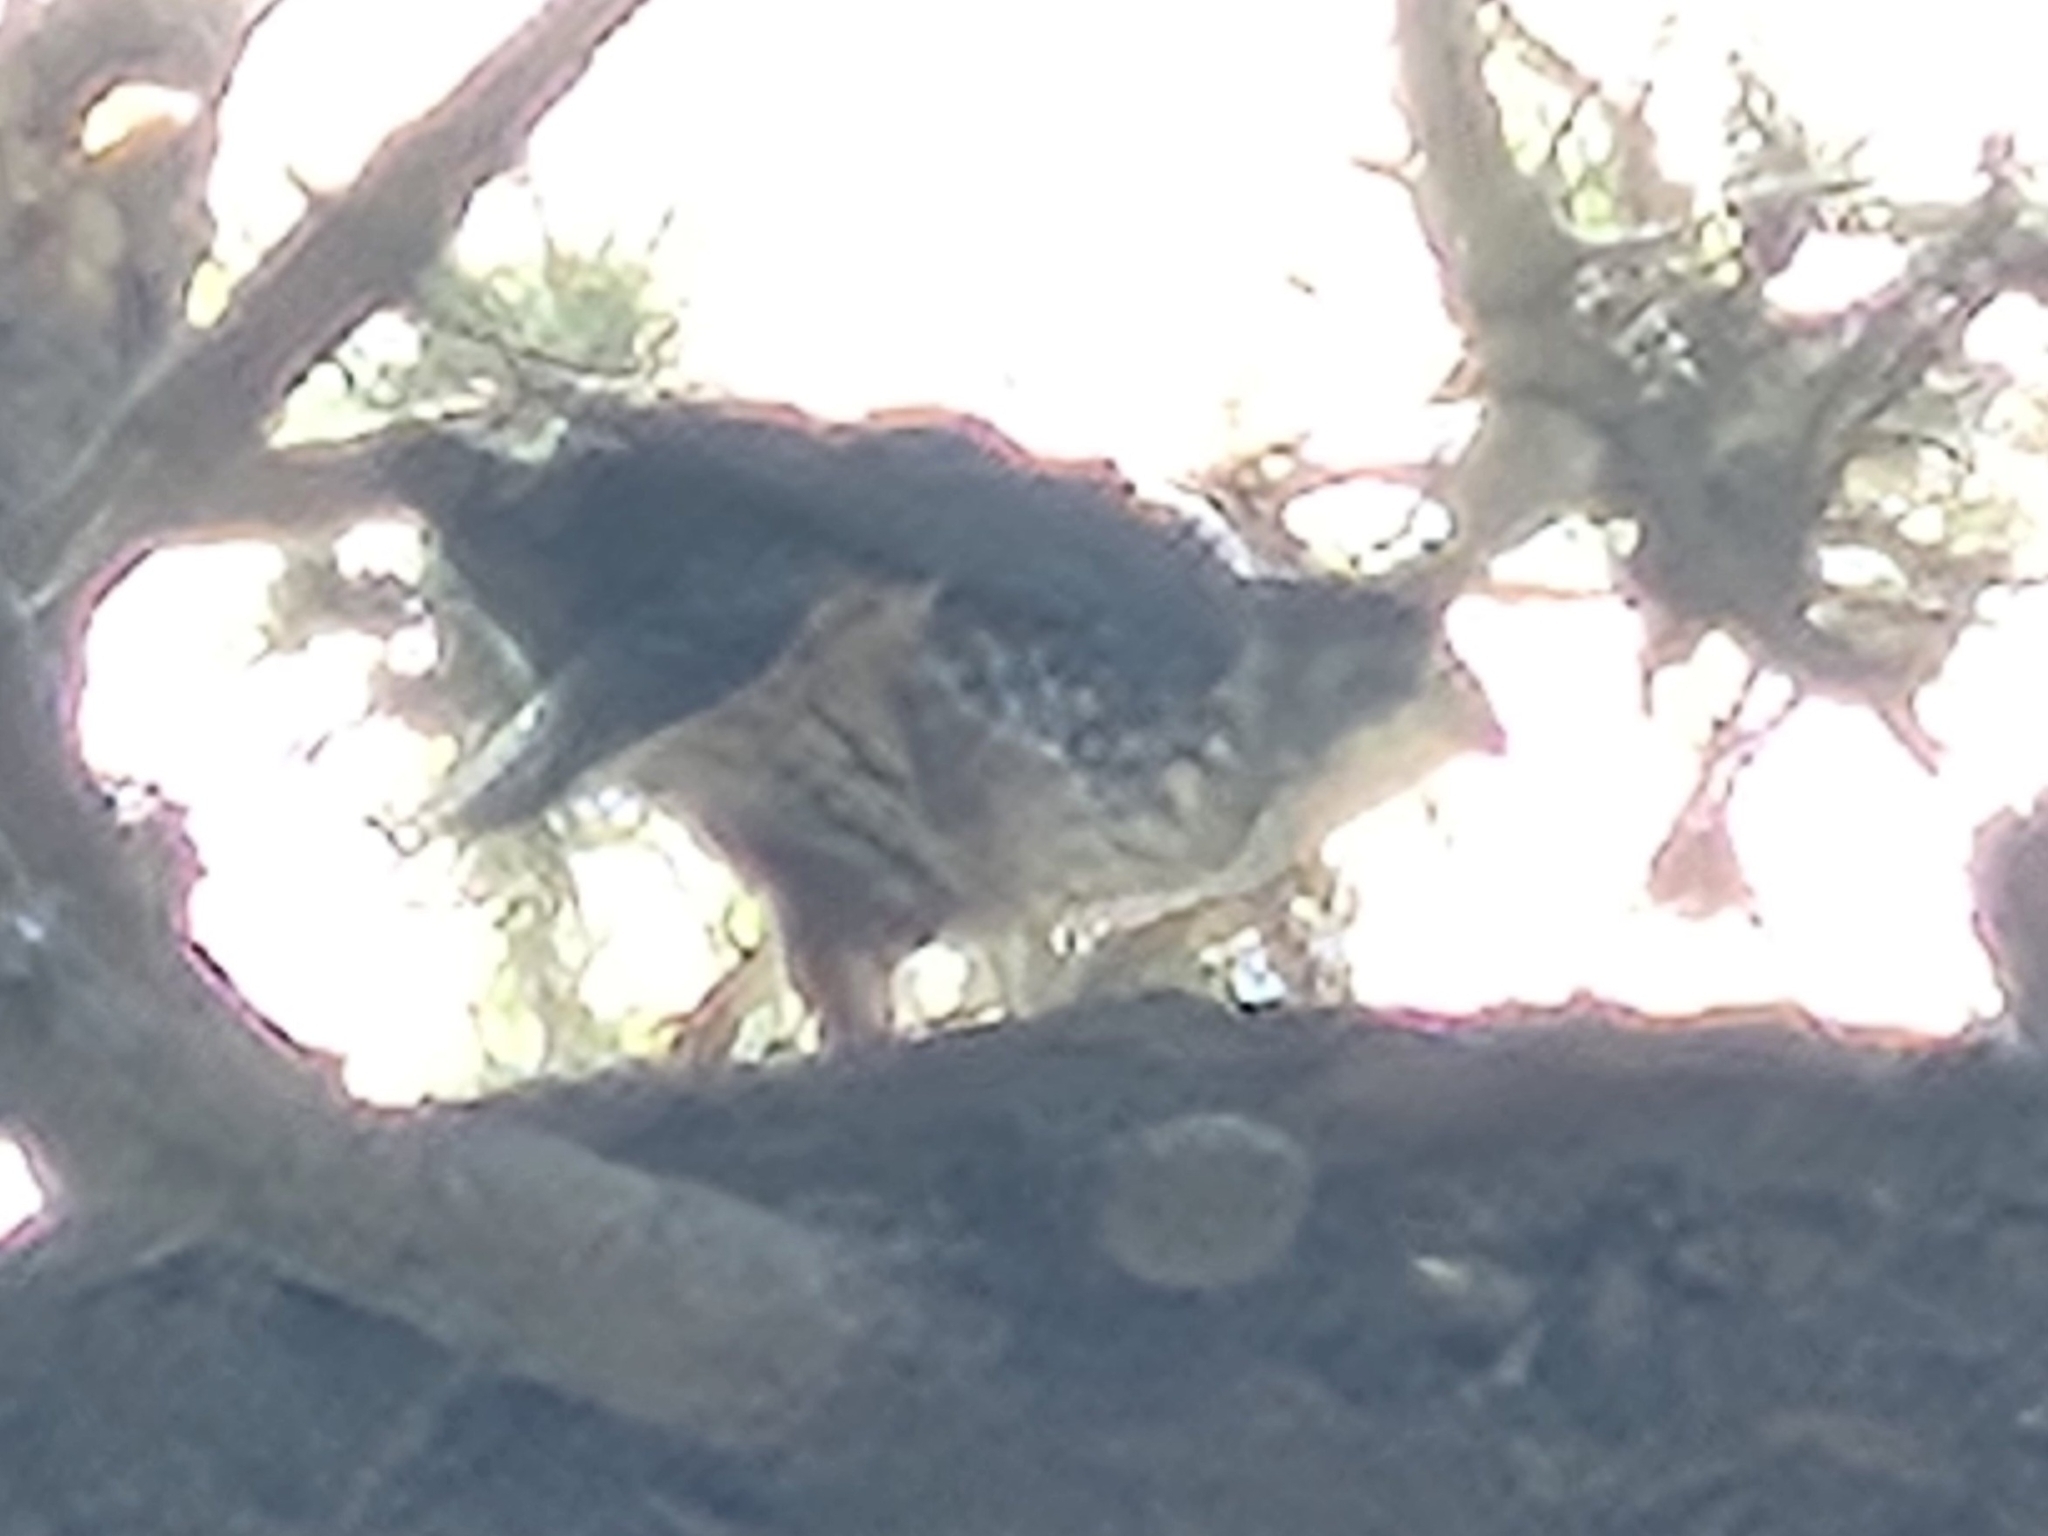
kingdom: Animalia
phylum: Chordata
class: Aves
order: Falconiformes
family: Falconidae
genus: Falco
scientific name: Falco novaeseelandiae
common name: New zealand falcon
